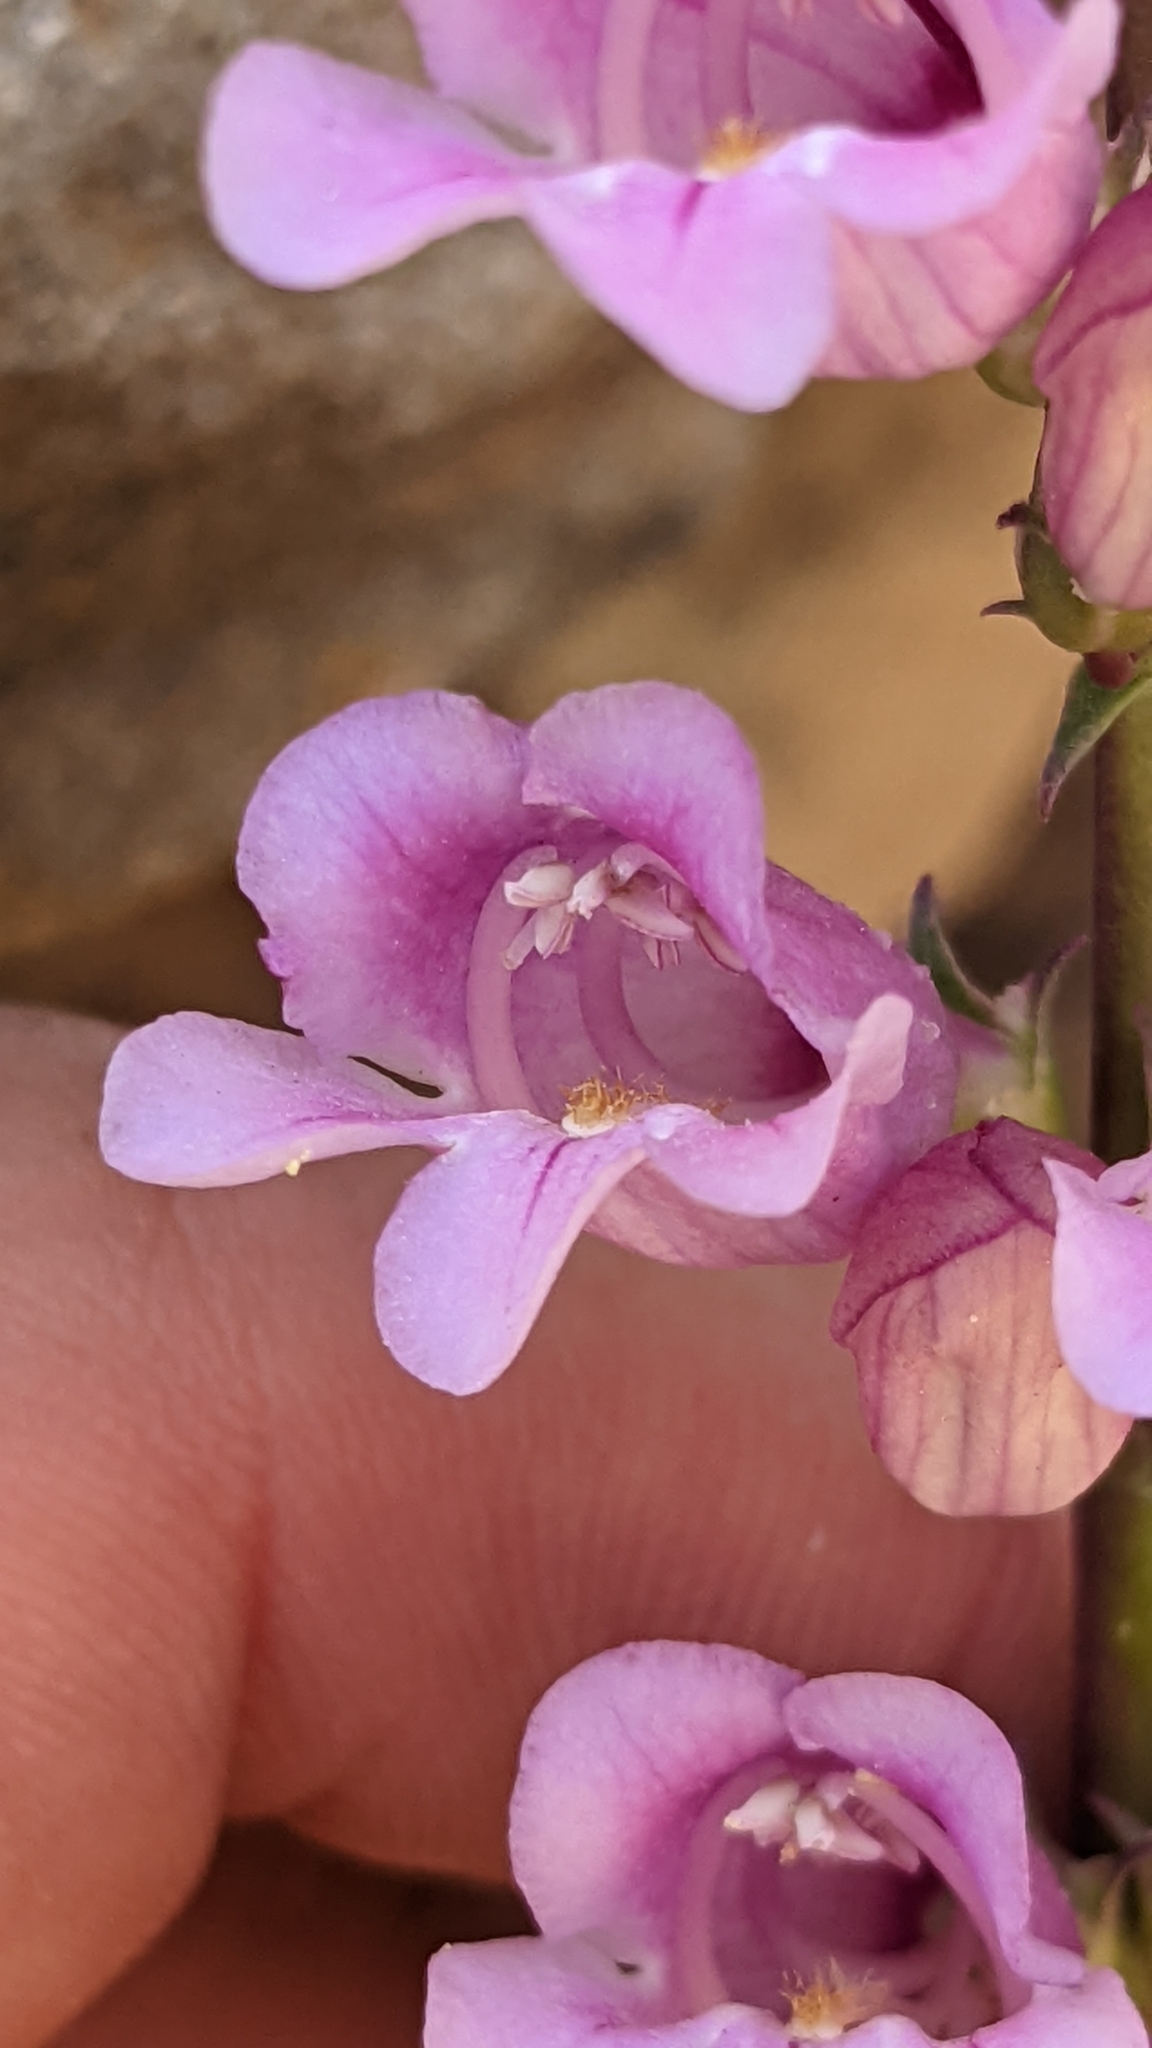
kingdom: Plantae
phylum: Tracheophyta
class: Magnoliopsida
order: Lamiales
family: Plantaginaceae
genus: Penstemon
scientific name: Penstemon laevis
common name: Smooth penstemon
